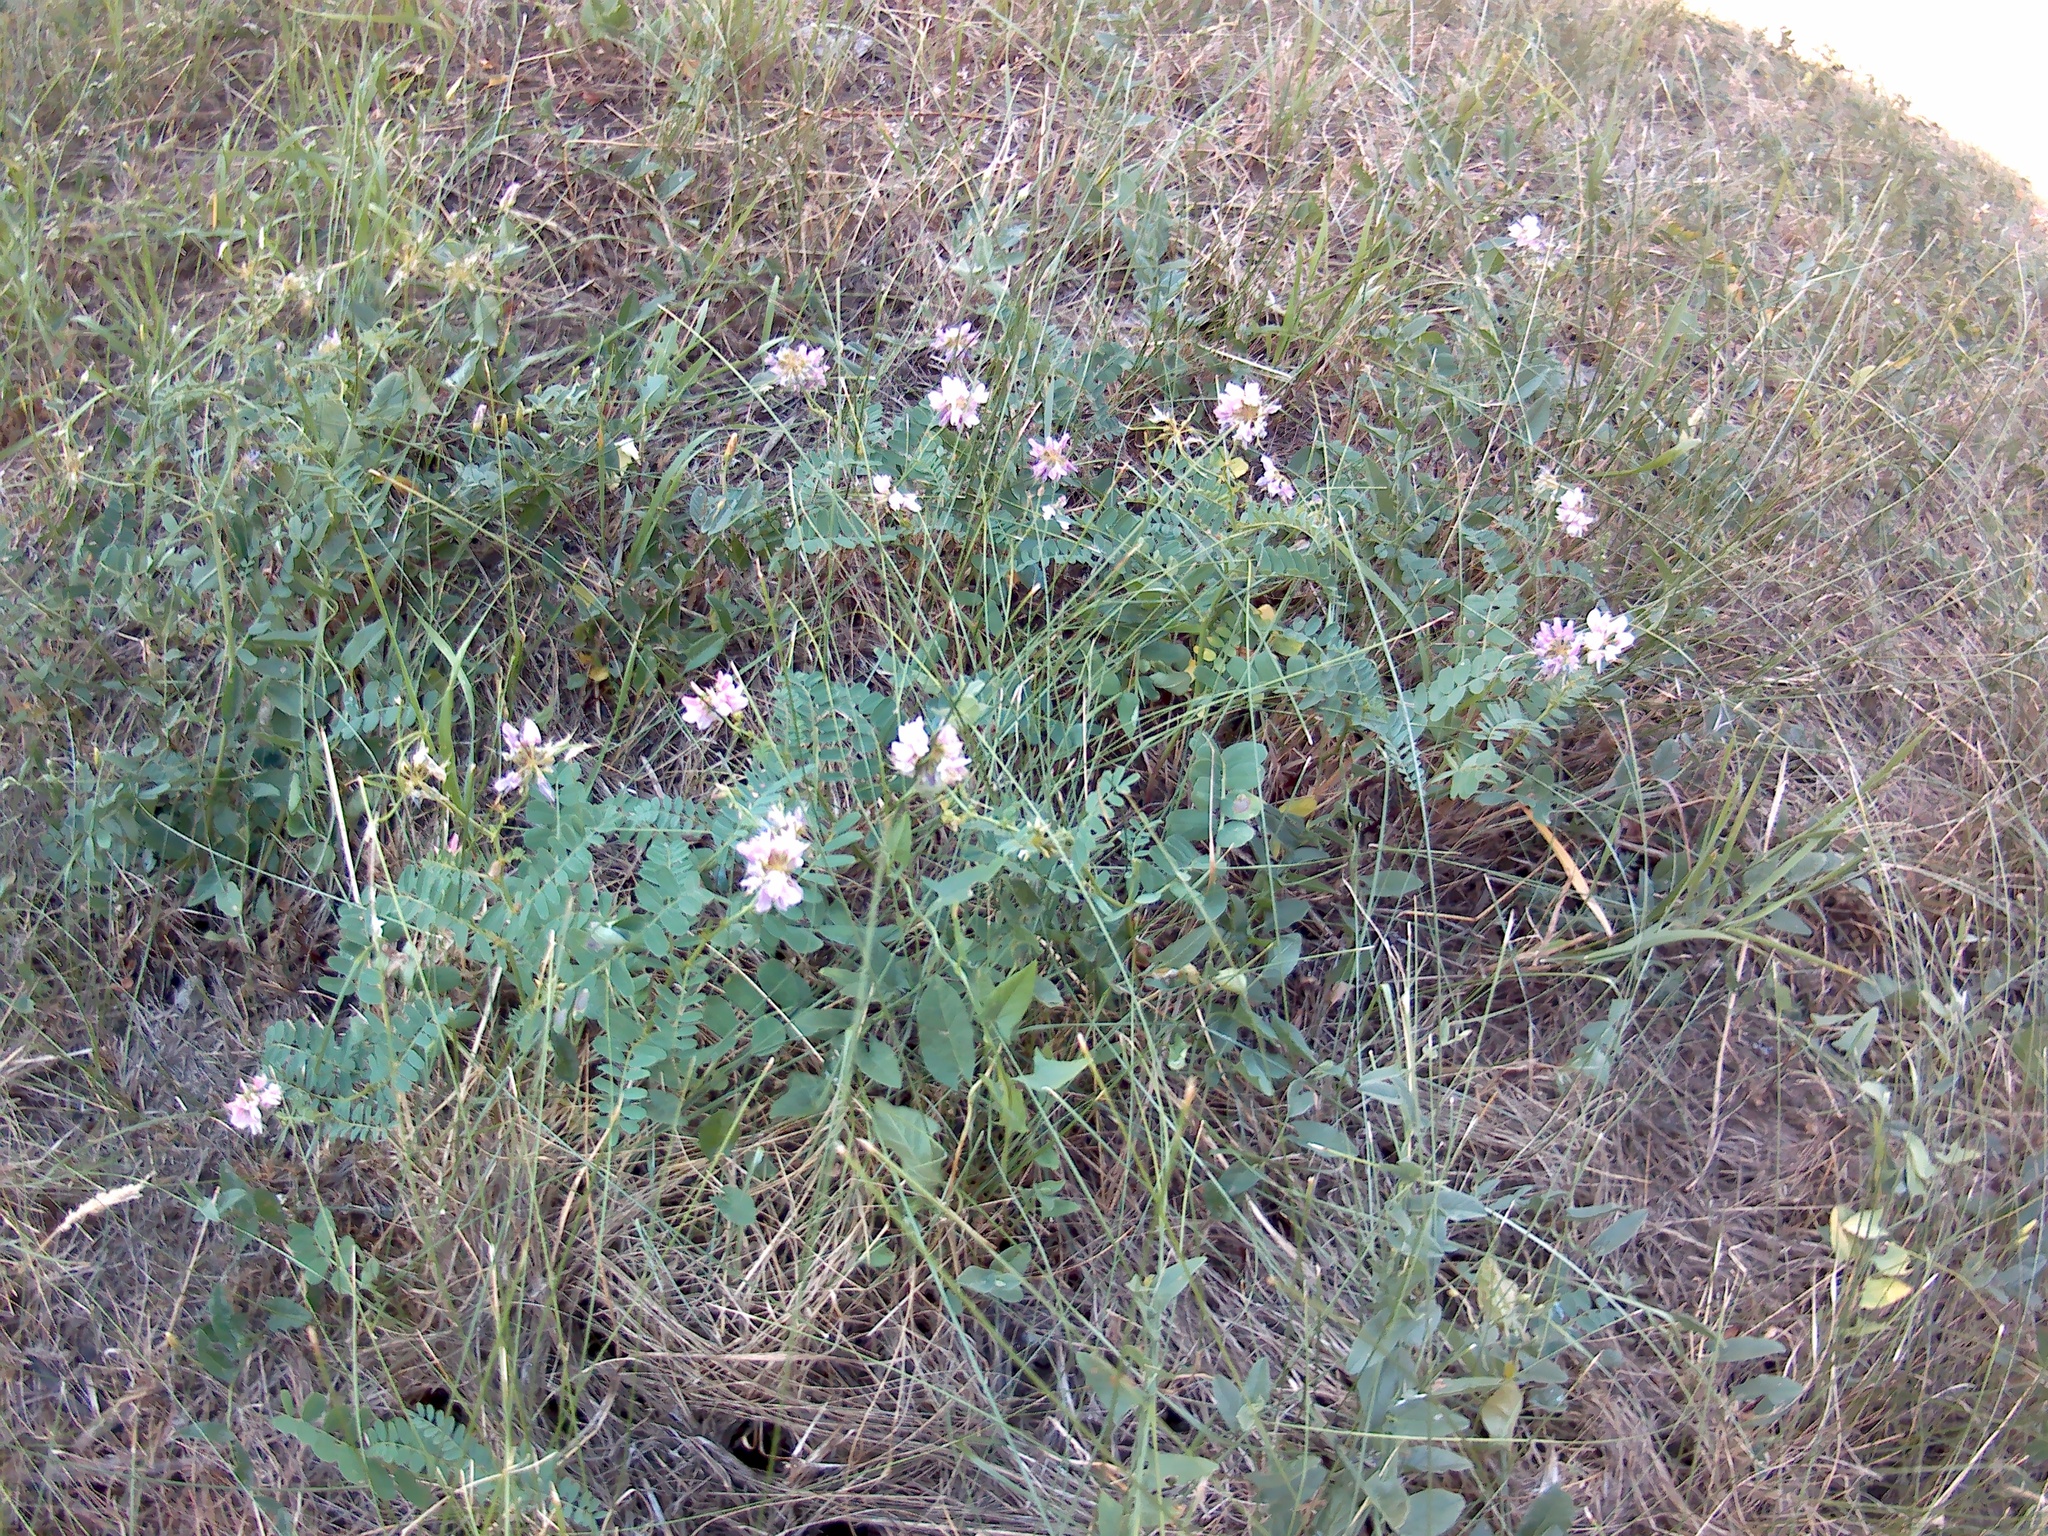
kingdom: Plantae
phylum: Tracheophyta
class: Magnoliopsida
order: Fabales
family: Fabaceae
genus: Coronilla
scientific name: Coronilla varia
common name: Crownvetch
